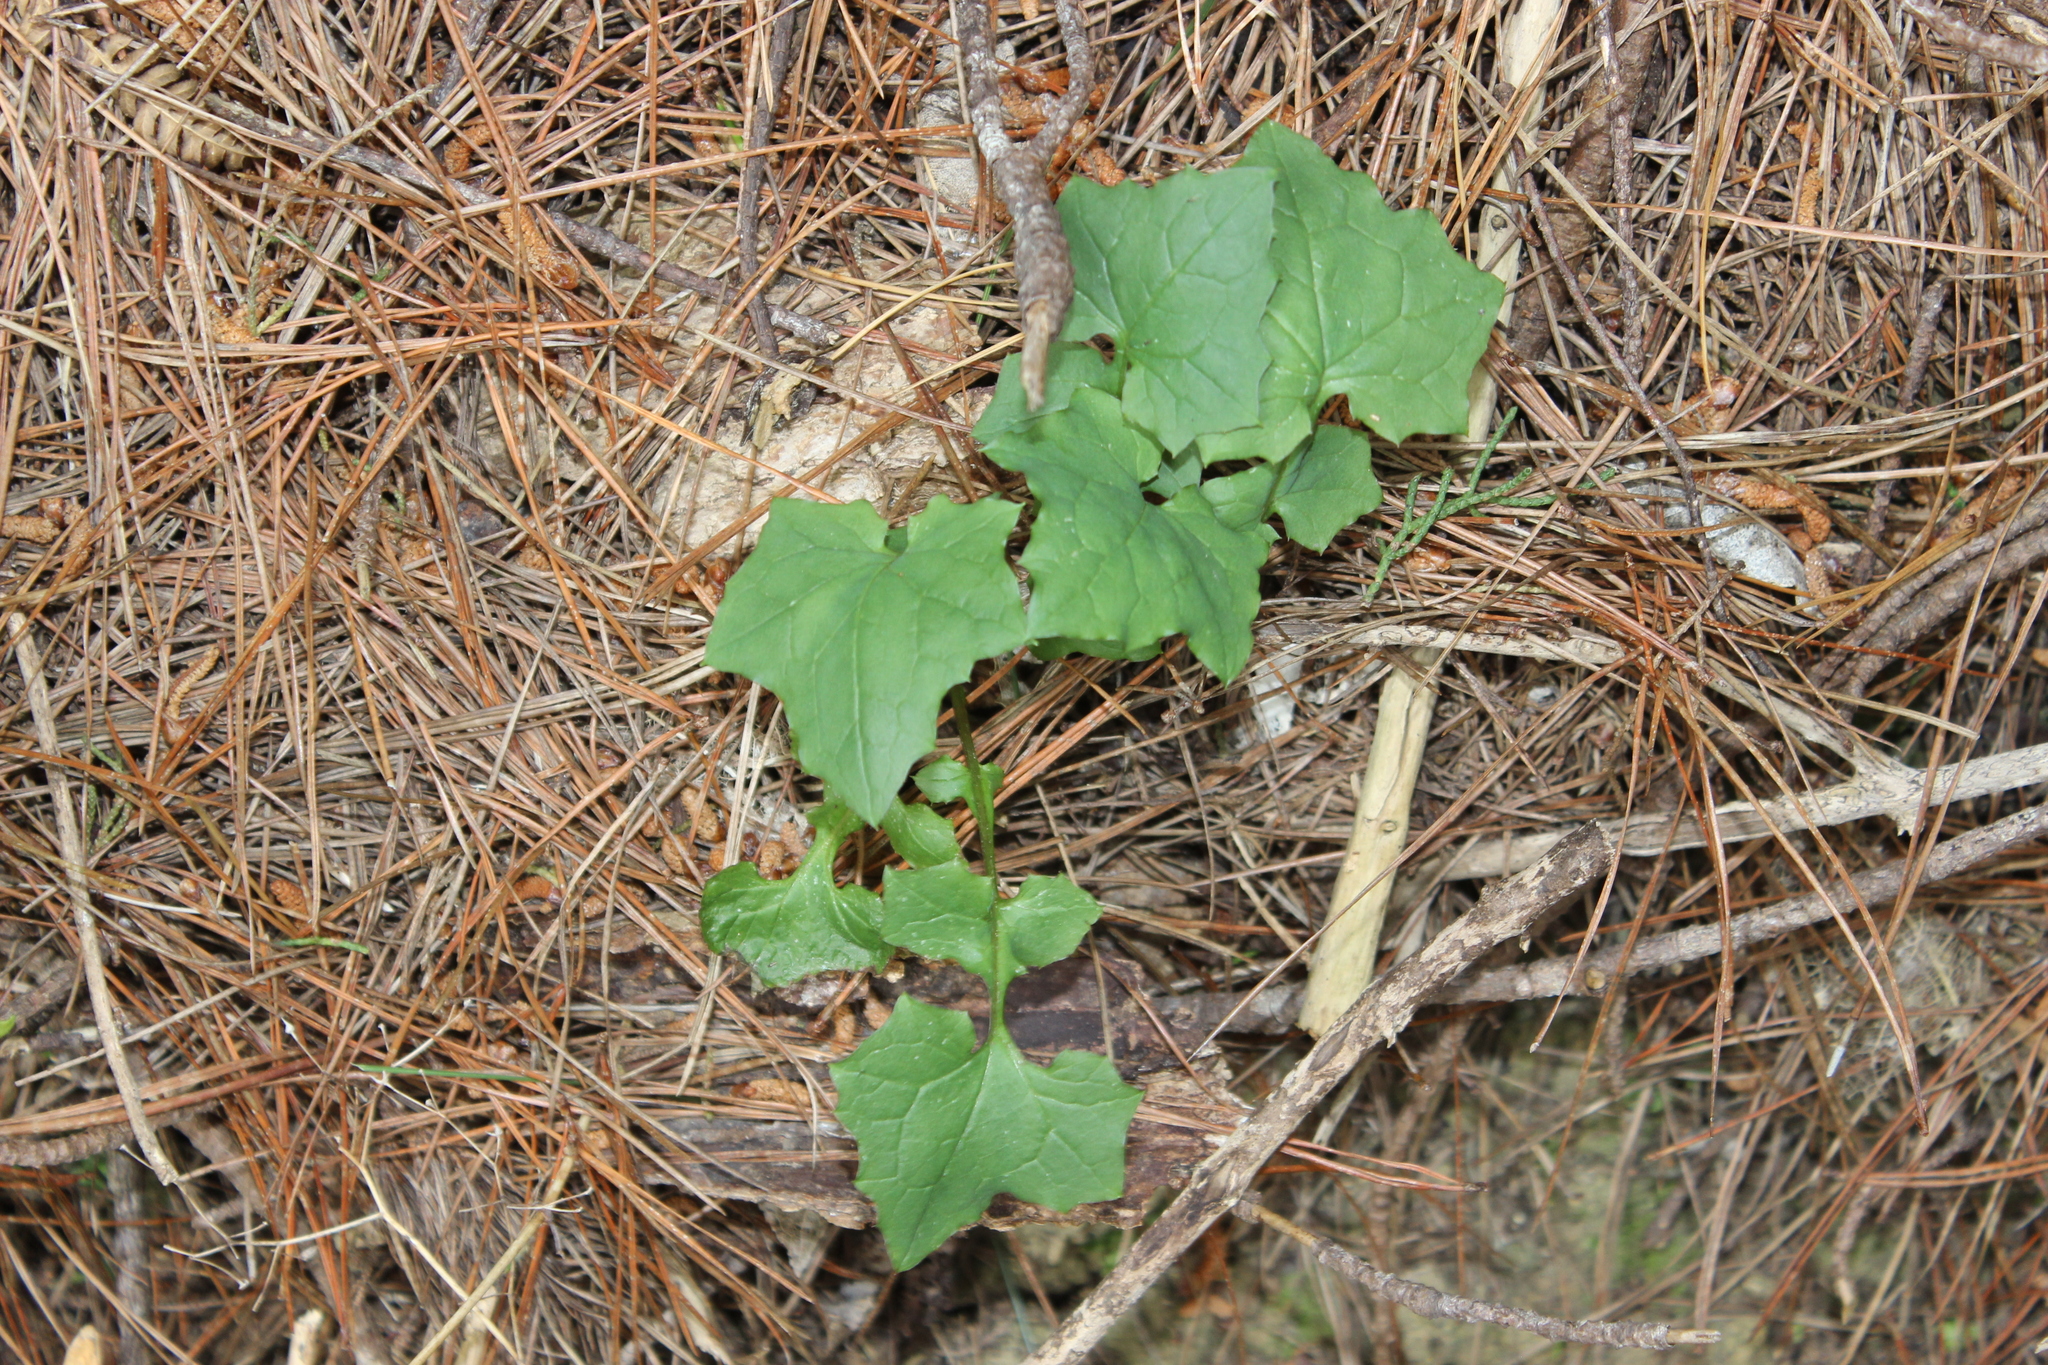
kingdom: Plantae
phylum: Tracheophyta
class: Magnoliopsida
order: Asterales
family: Asteraceae
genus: Mycelis
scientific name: Mycelis muralis
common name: Wall lettuce
